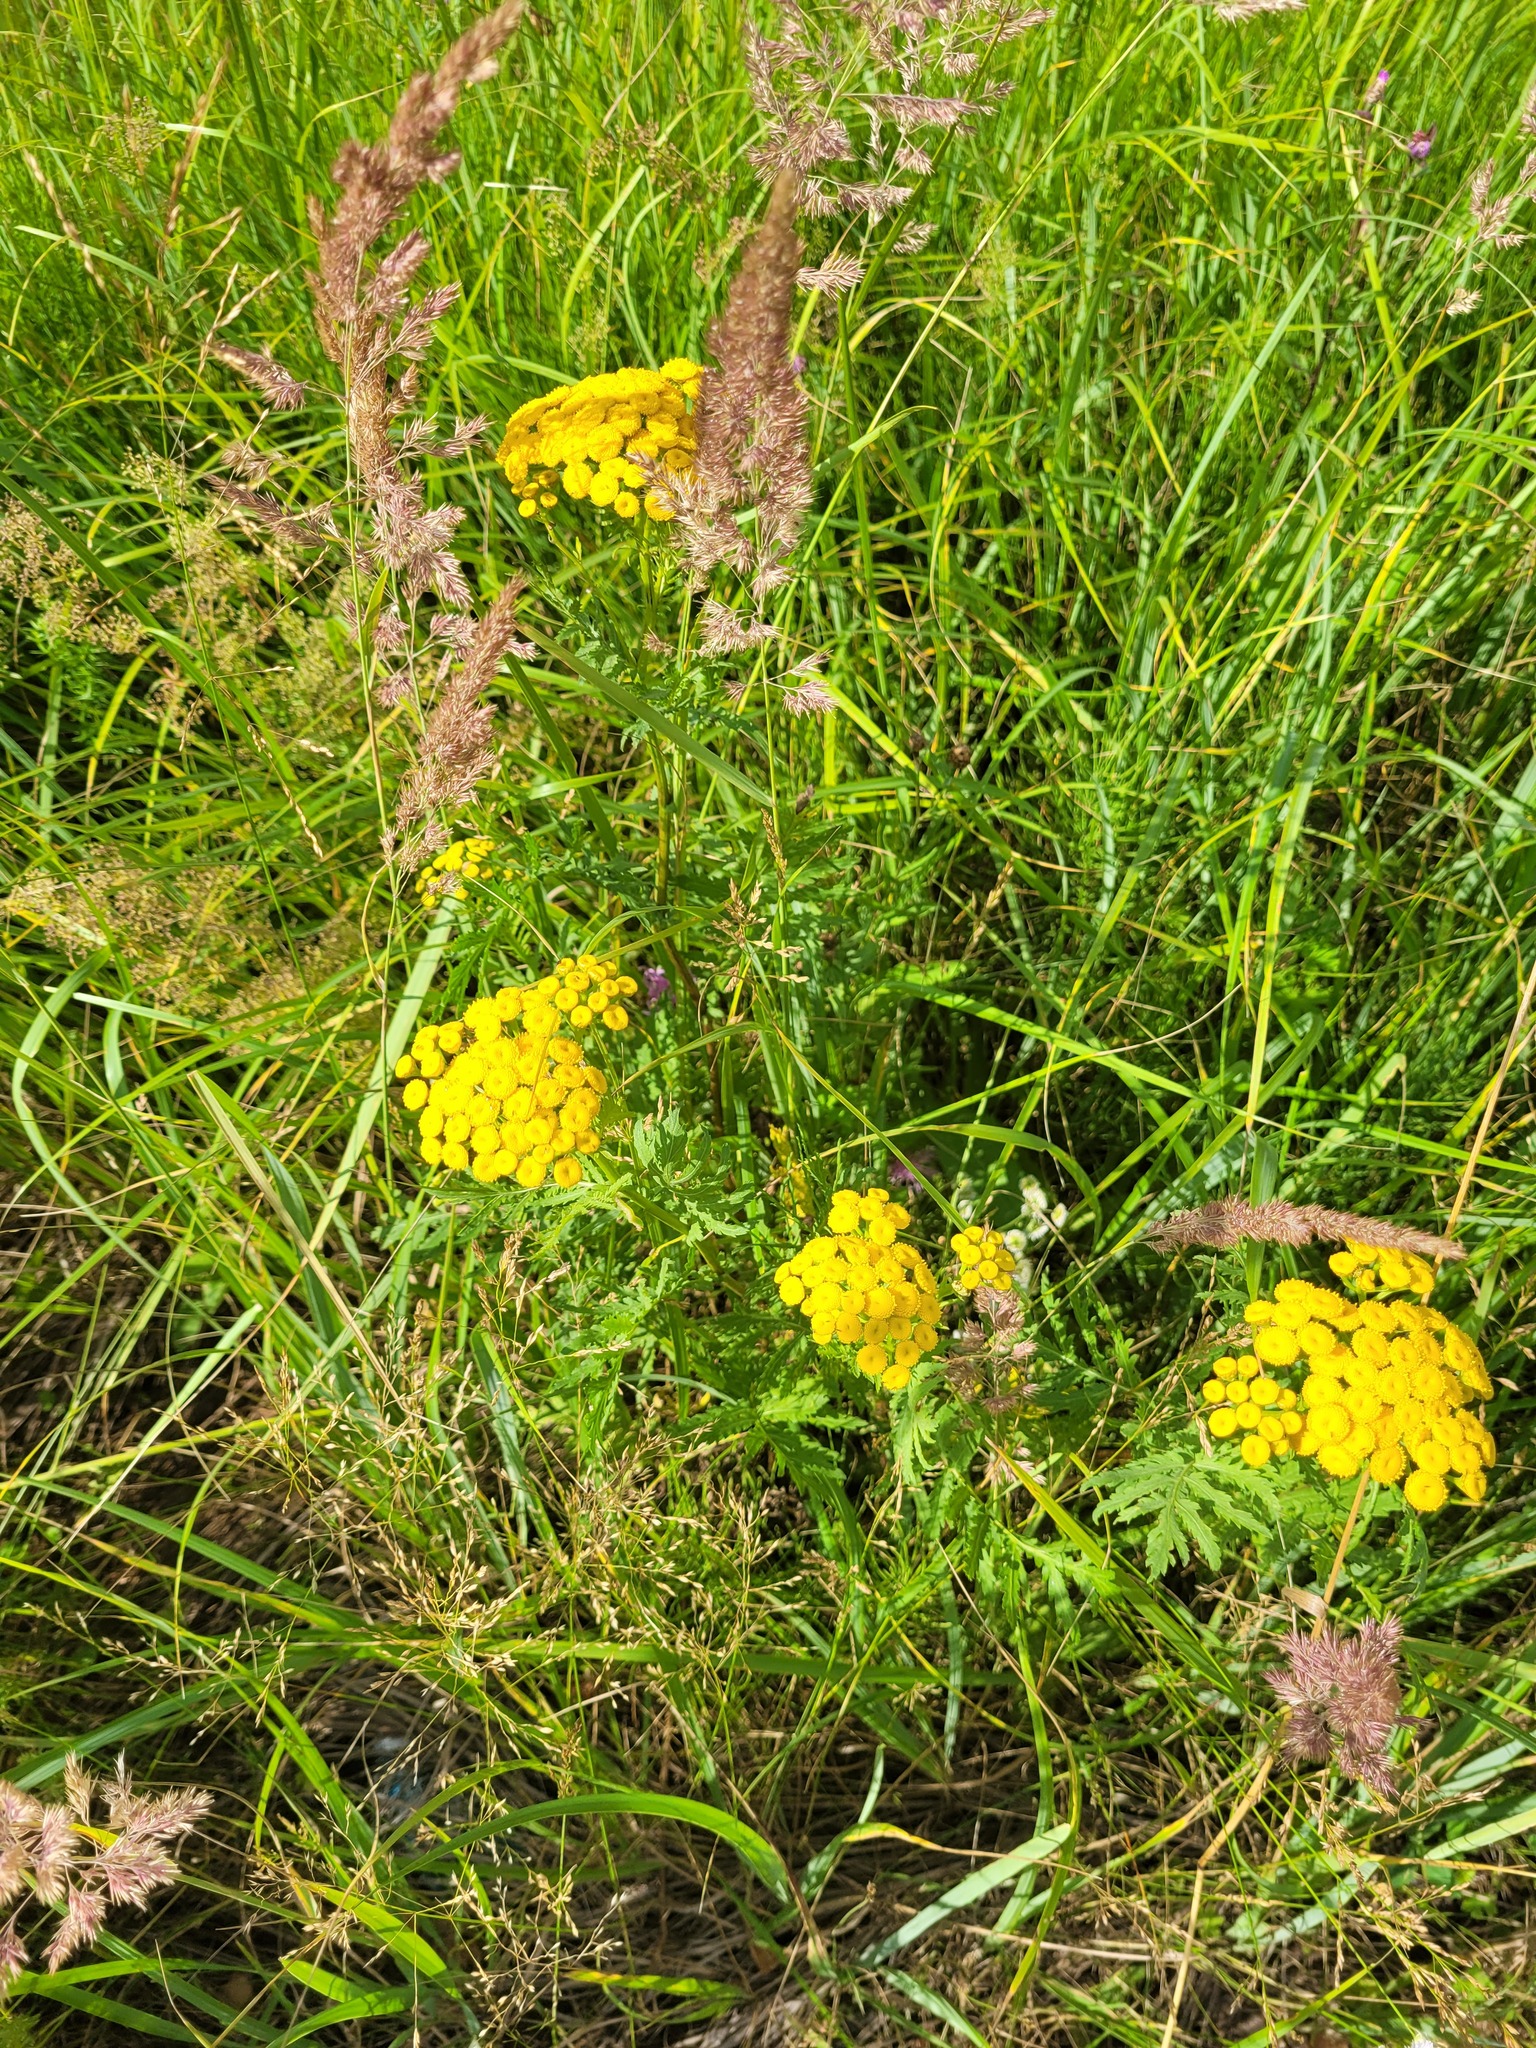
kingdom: Plantae
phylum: Tracheophyta
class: Magnoliopsida
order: Asterales
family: Asteraceae
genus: Tanacetum
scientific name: Tanacetum vulgare
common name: Common tansy
